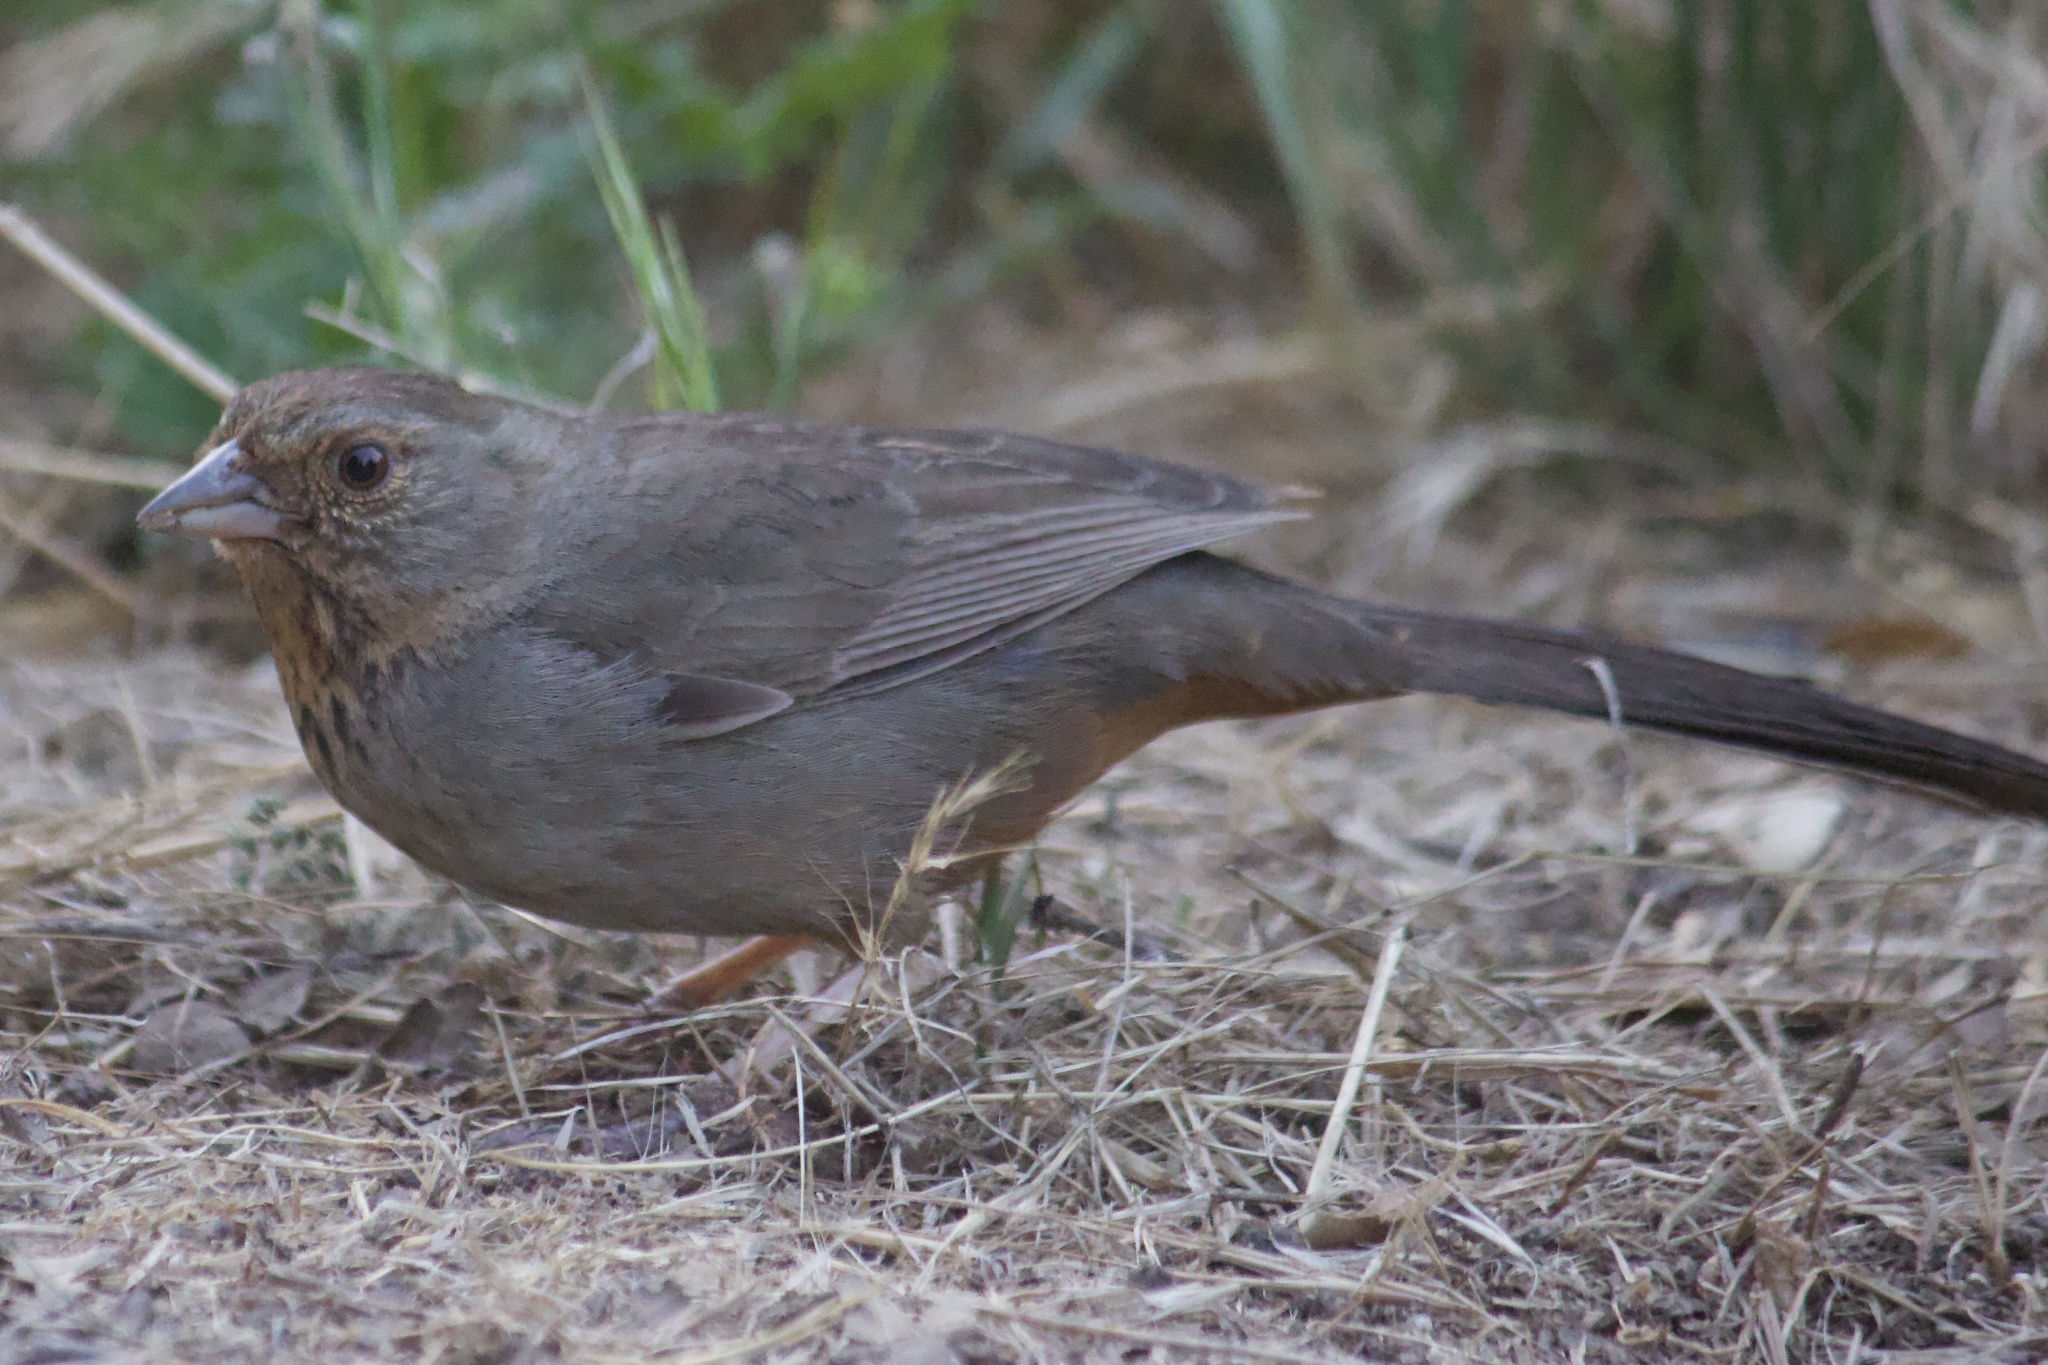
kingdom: Animalia
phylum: Chordata
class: Aves
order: Passeriformes
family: Passerellidae
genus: Melozone
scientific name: Melozone crissalis
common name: California towhee
